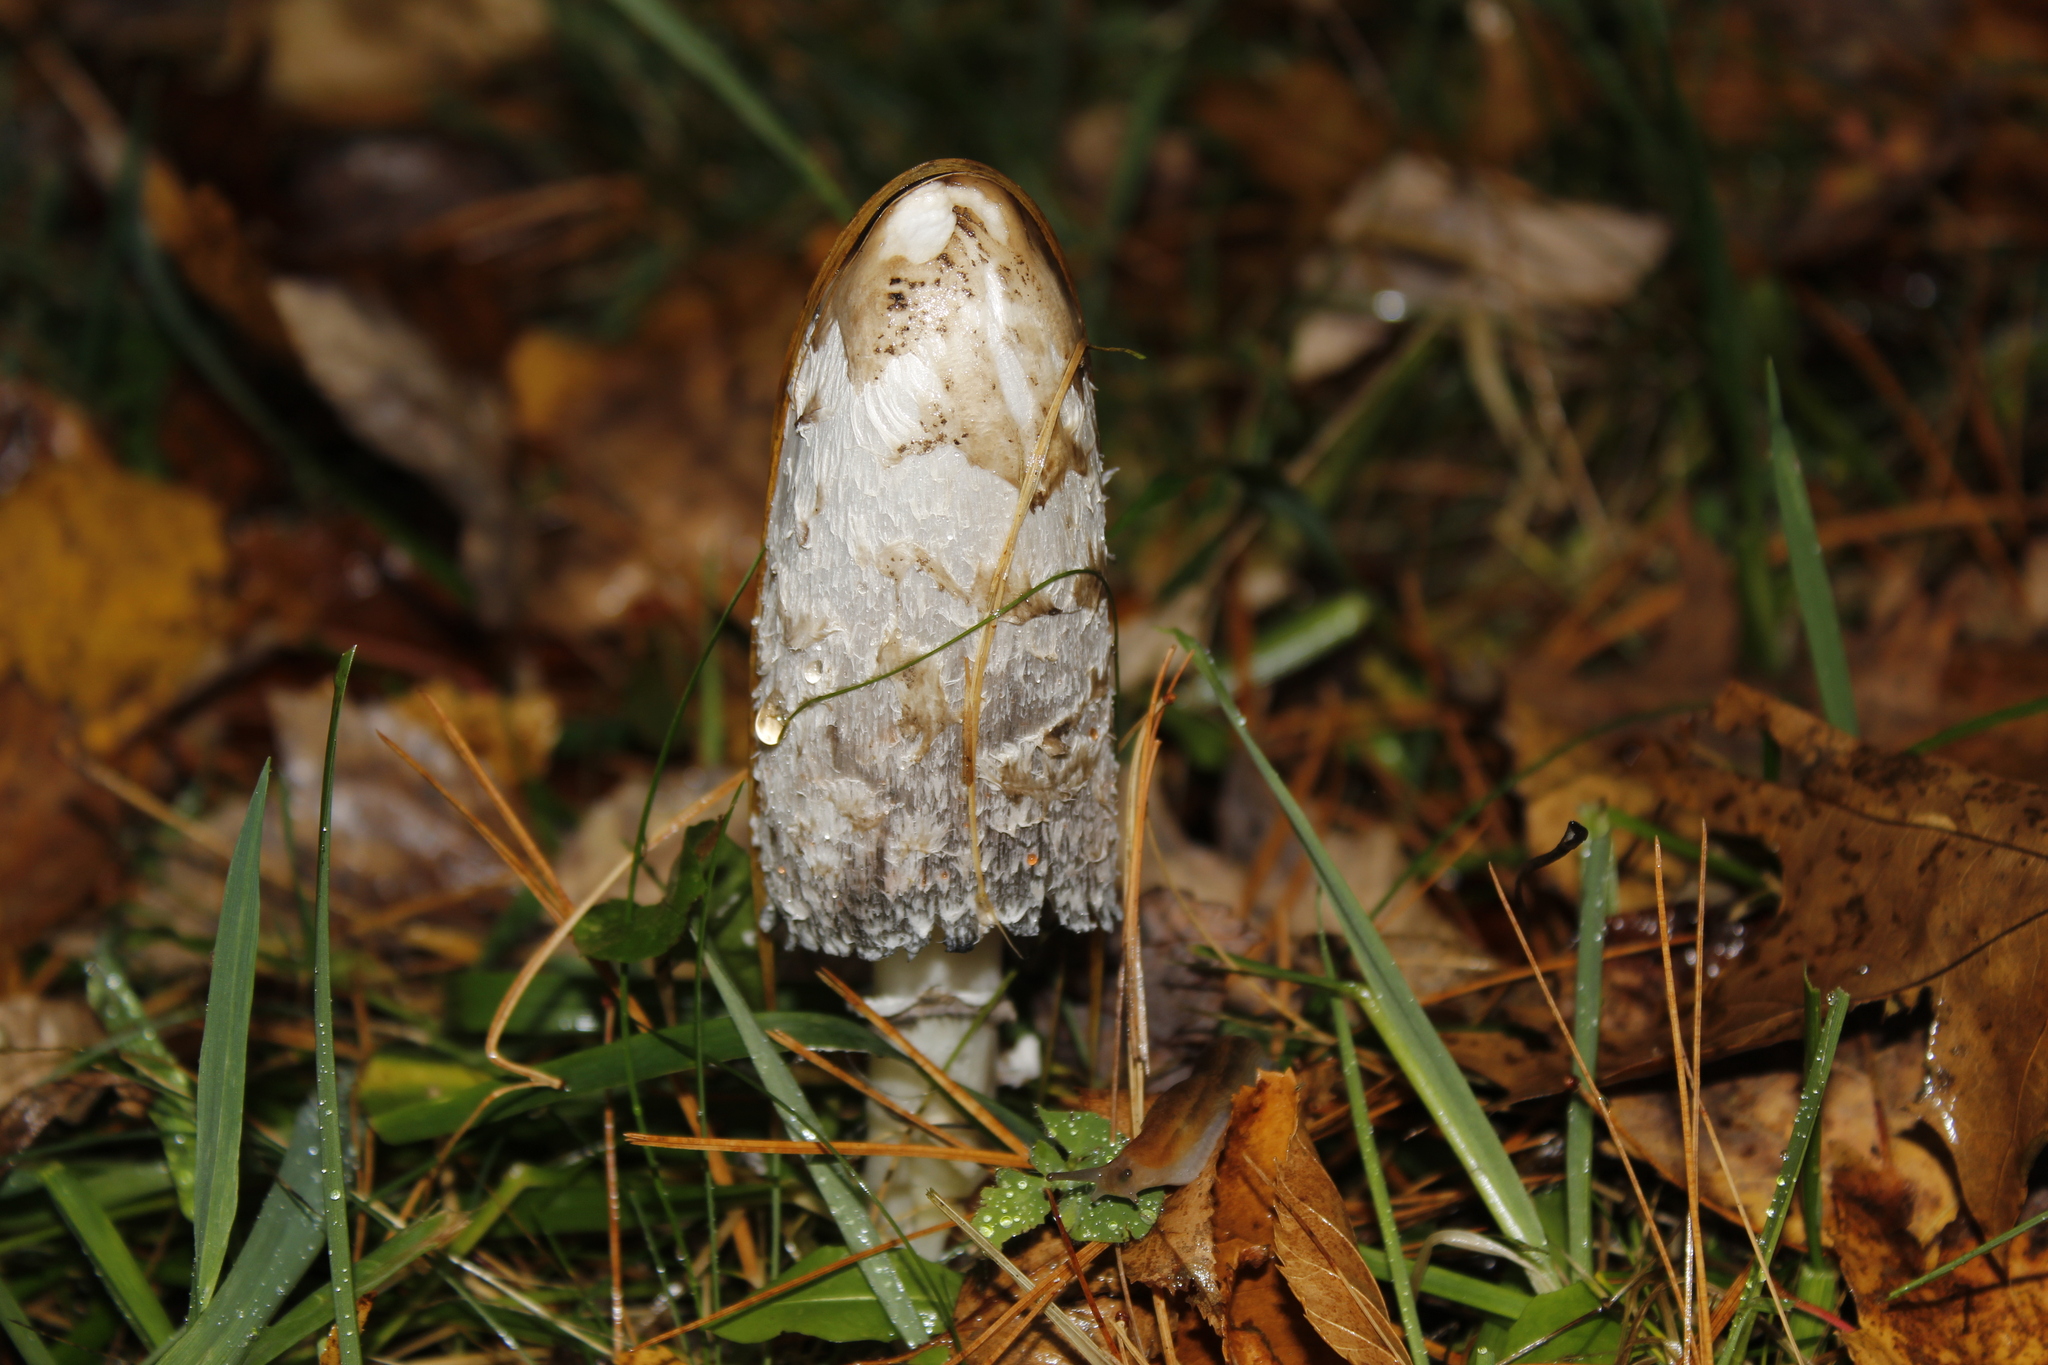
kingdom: Fungi
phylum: Basidiomycota
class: Agaricomycetes
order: Agaricales
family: Agaricaceae
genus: Coprinus
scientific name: Coprinus comatus
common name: Lawyer's wig
